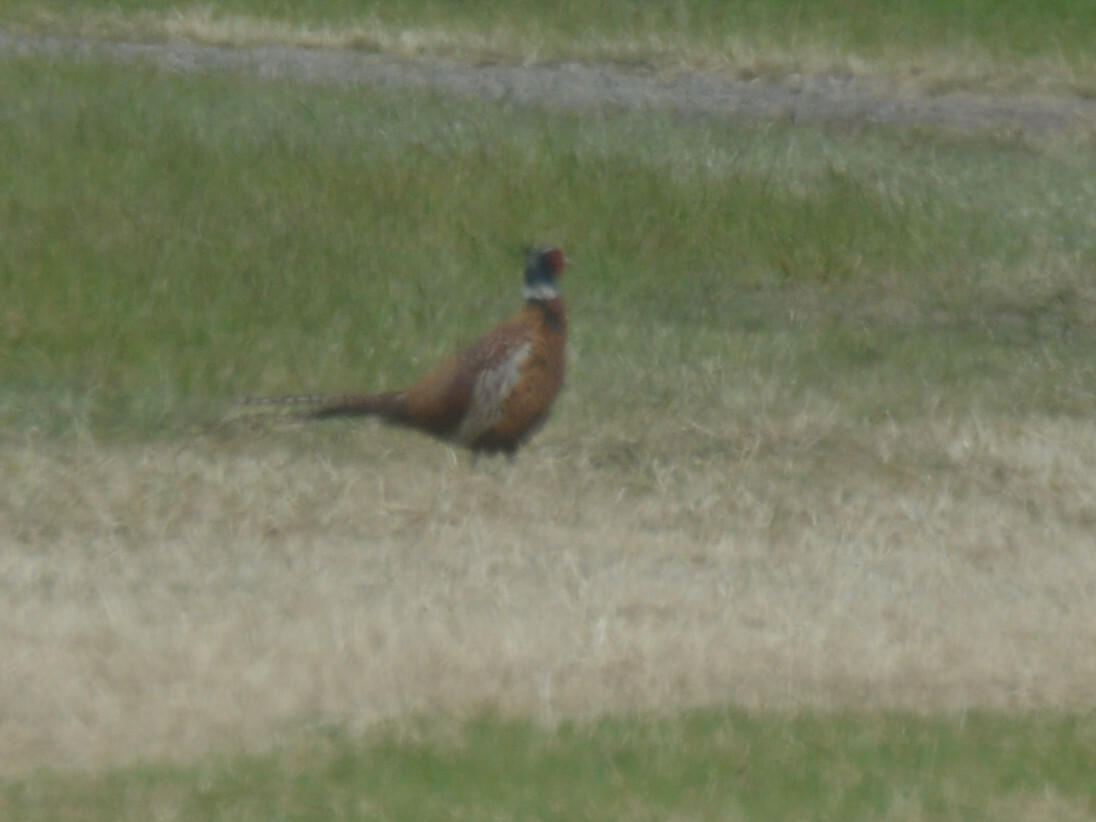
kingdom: Animalia
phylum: Chordata
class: Aves
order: Galliformes
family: Phasianidae
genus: Phasianus
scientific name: Phasianus colchicus
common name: Common pheasant
